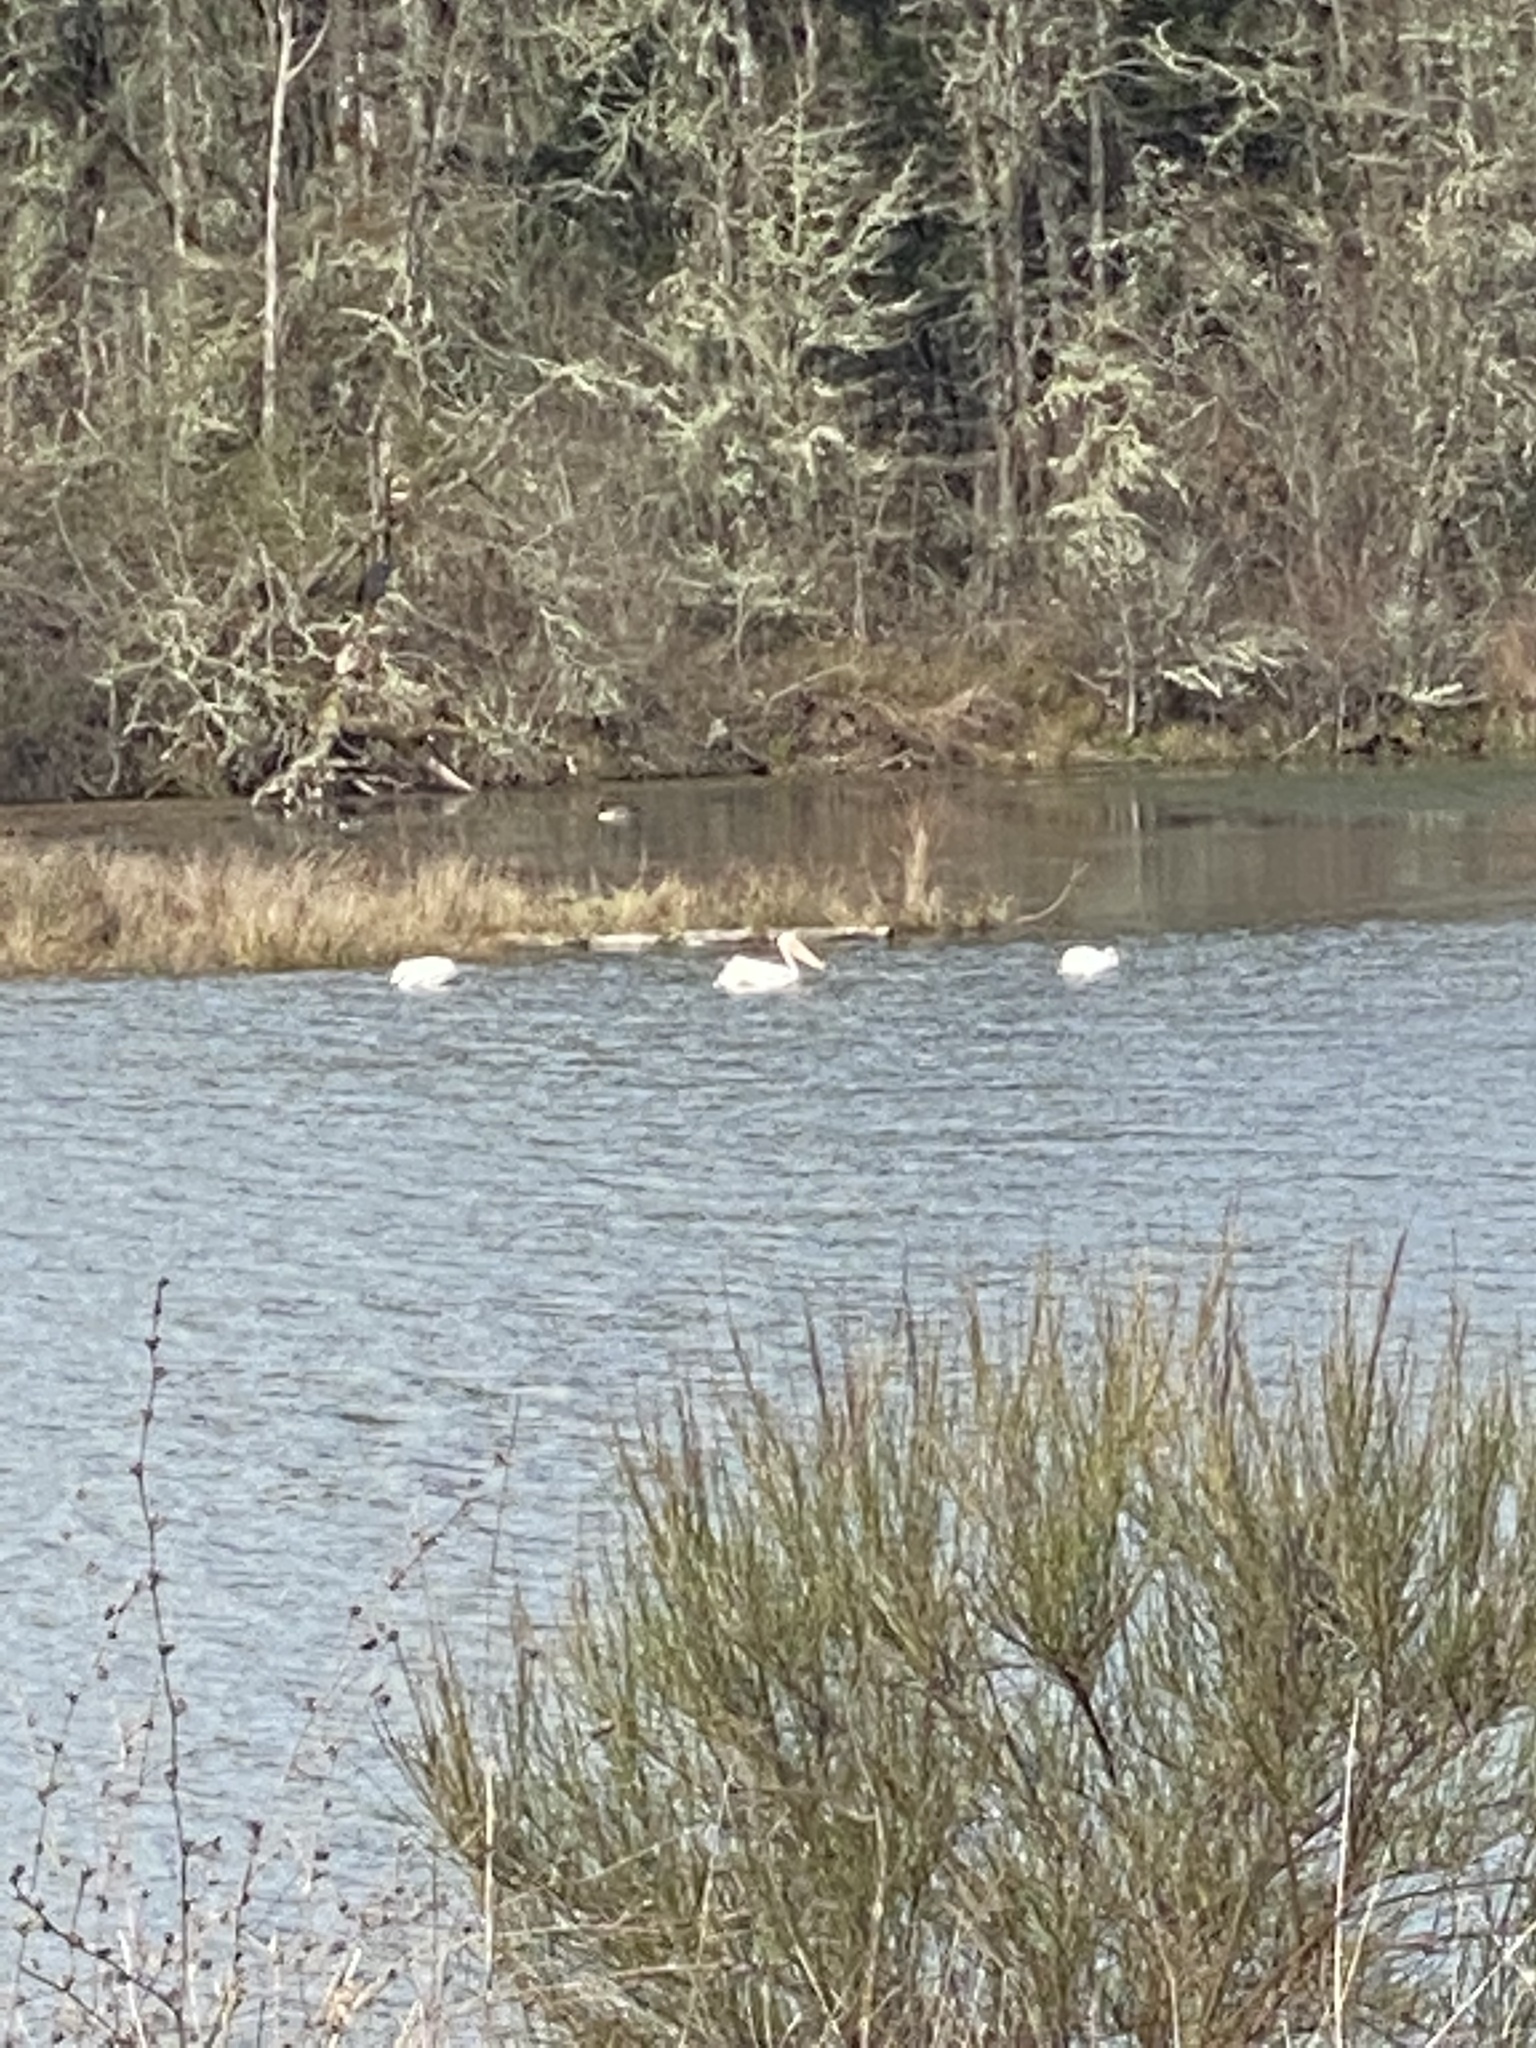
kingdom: Animalia
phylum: Chordata
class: Aves
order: Pelecaniformes
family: Pelecanidae
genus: Pelecanus
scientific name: Pelecanus erythrorhynchos
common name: American white pelican
